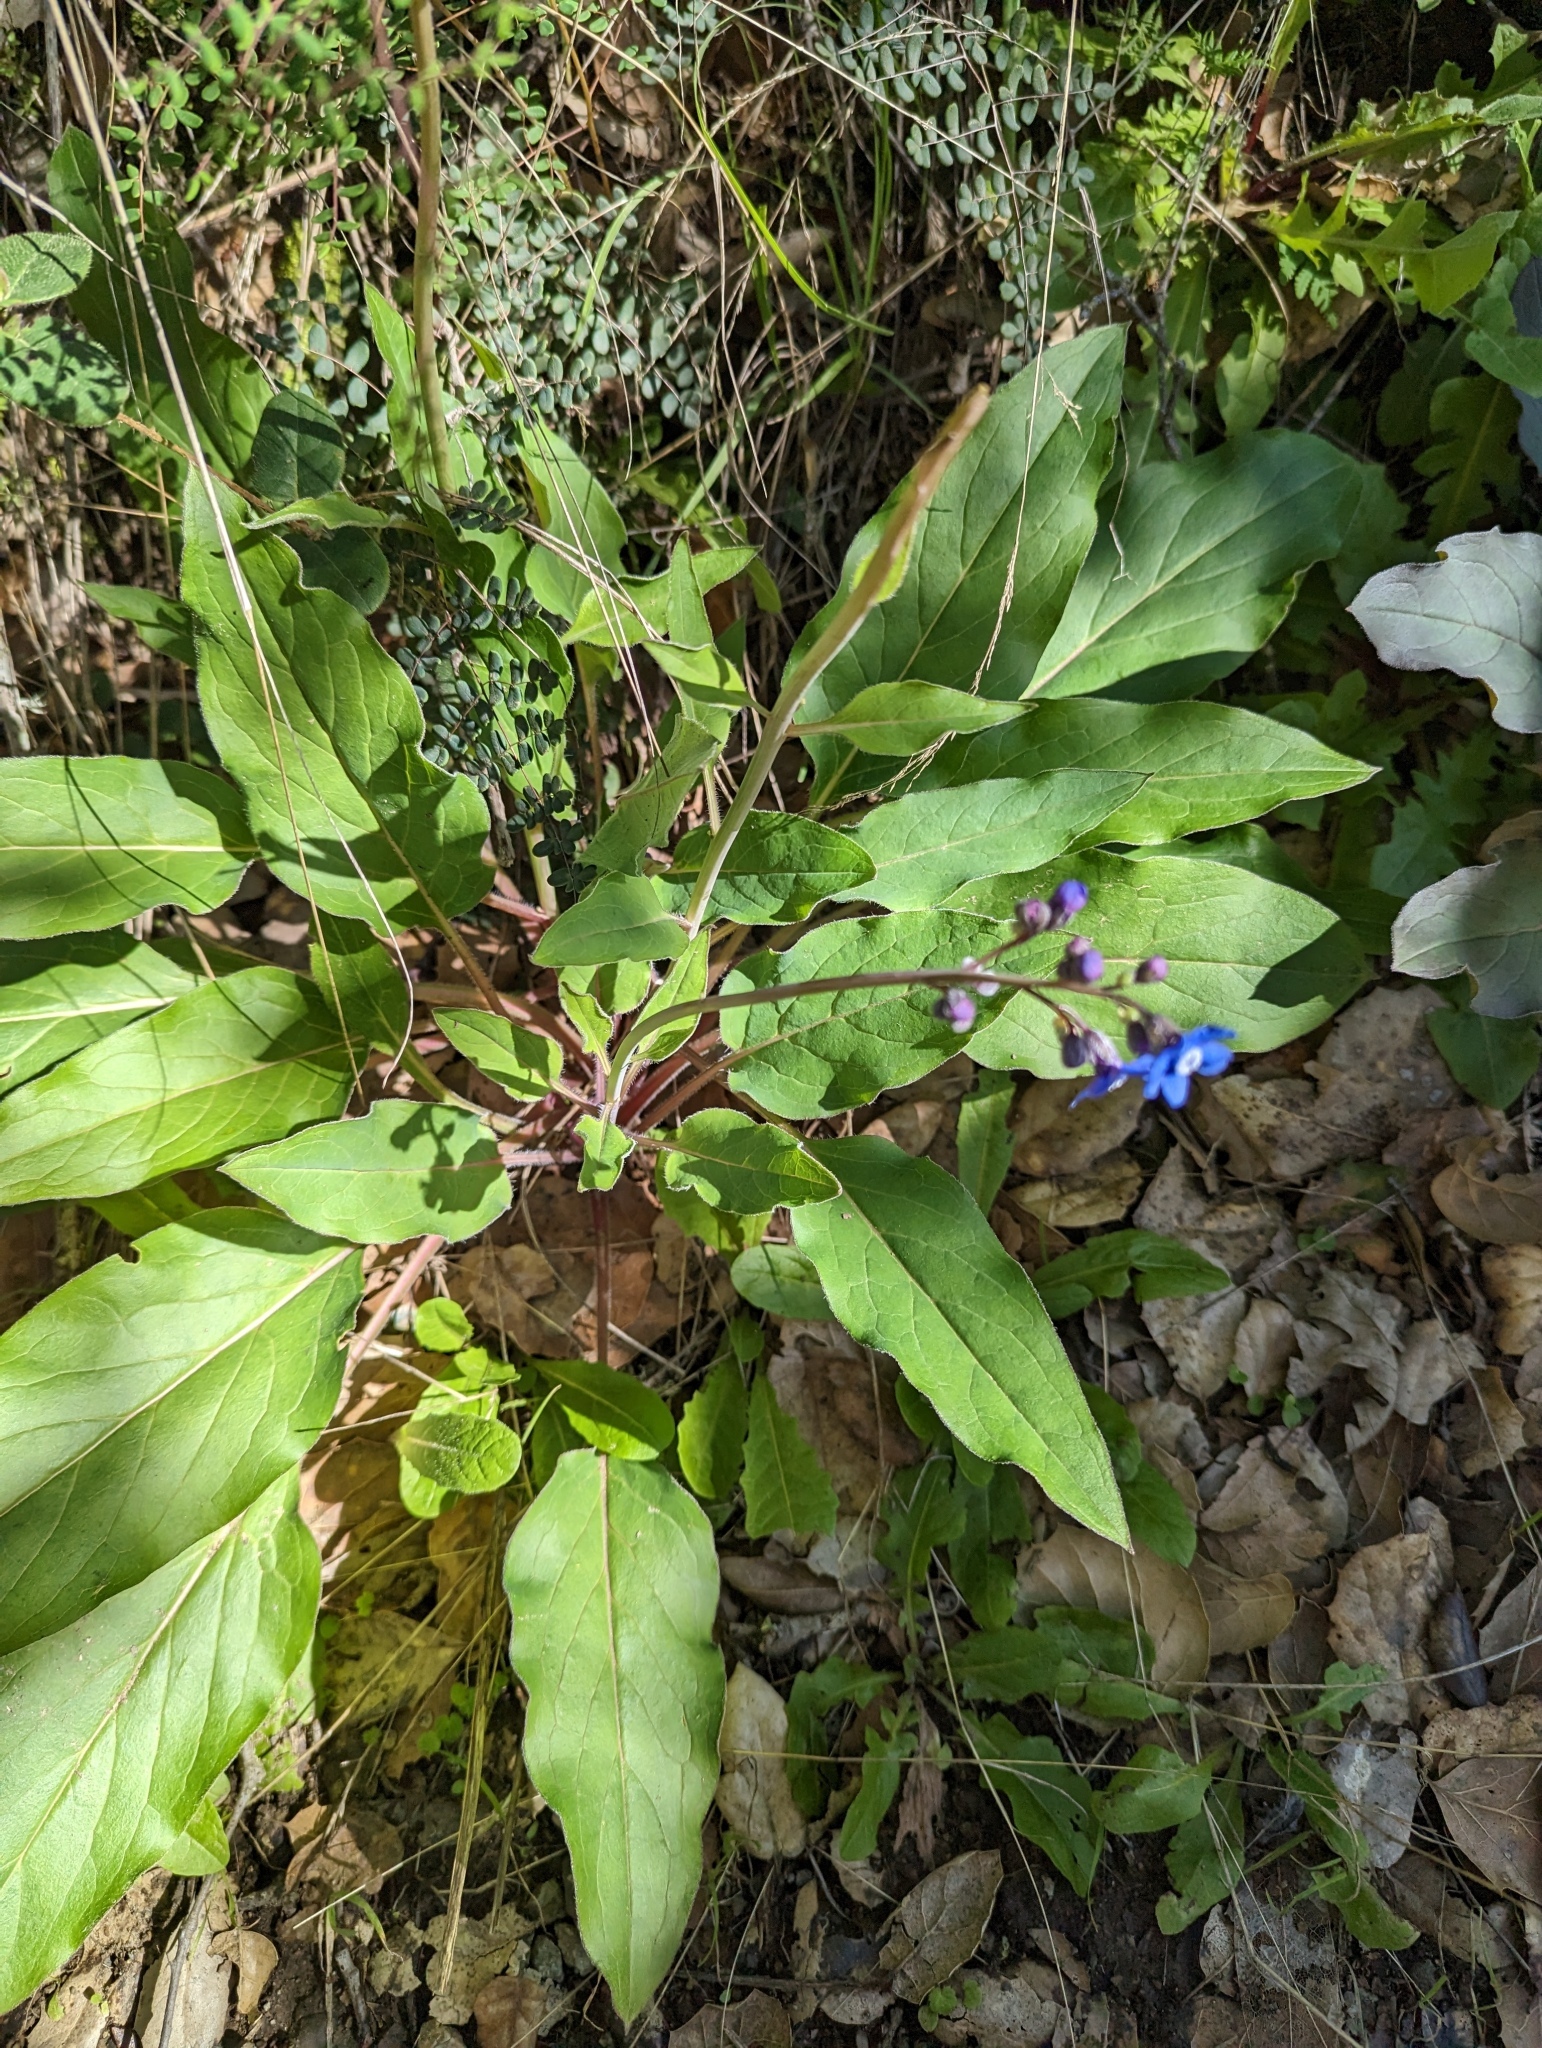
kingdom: Plantae
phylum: Tracheophyta
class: Magnoliopsida
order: Boraginales
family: Boraginaceae
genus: Adelinia
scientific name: Adelinia grande
